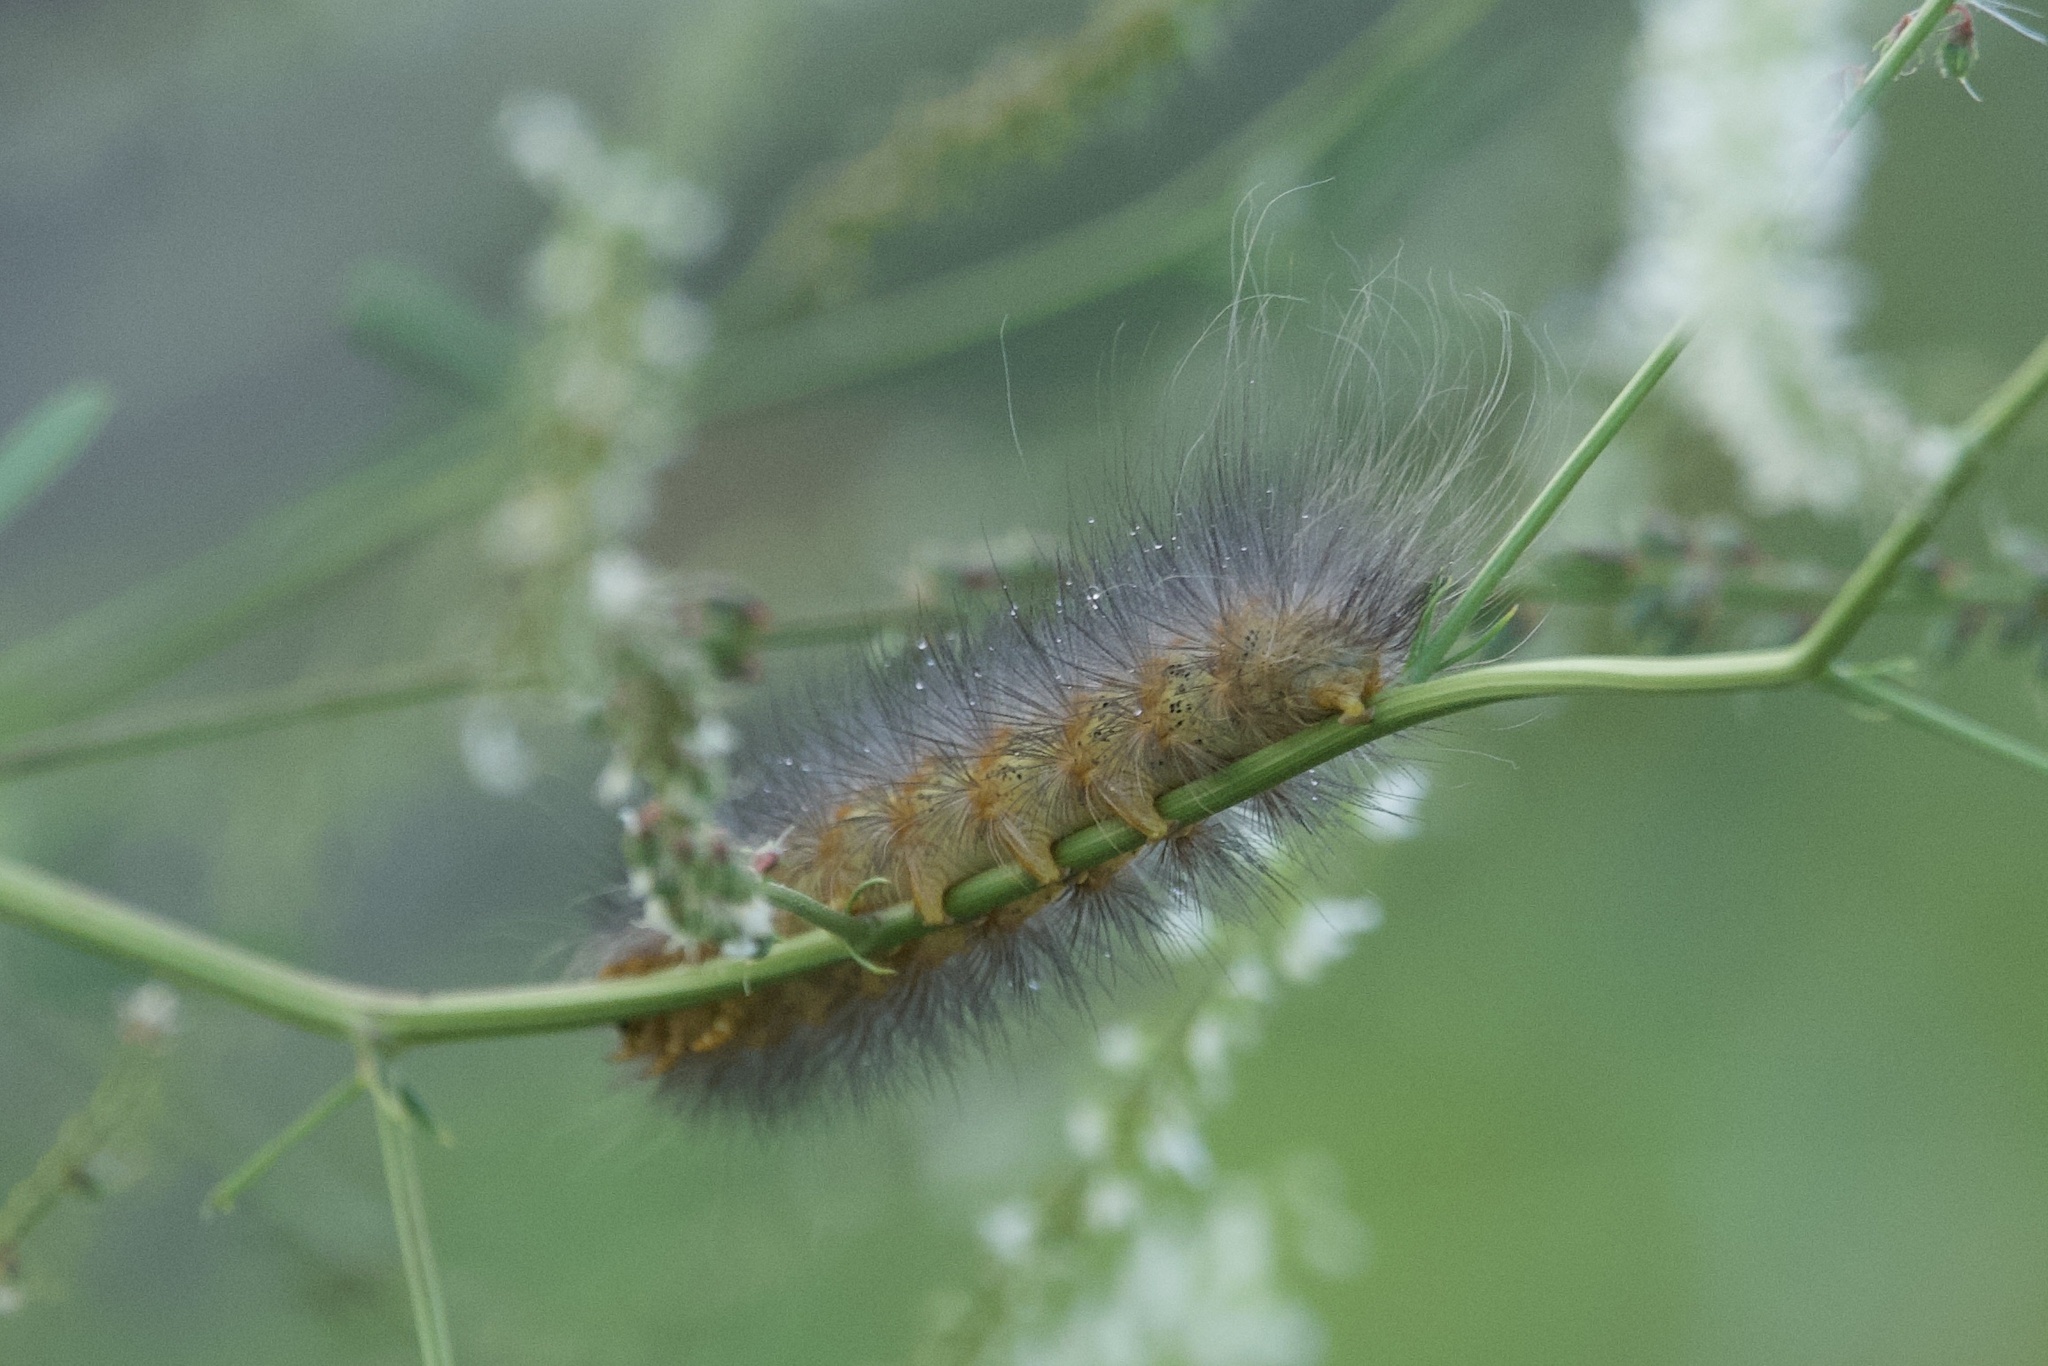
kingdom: Animalia
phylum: Arthropoda
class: Insecta
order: Lepidoptera
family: Erebidae
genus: Estigmene
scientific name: Estigmene acrea
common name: Salt marsh moth
